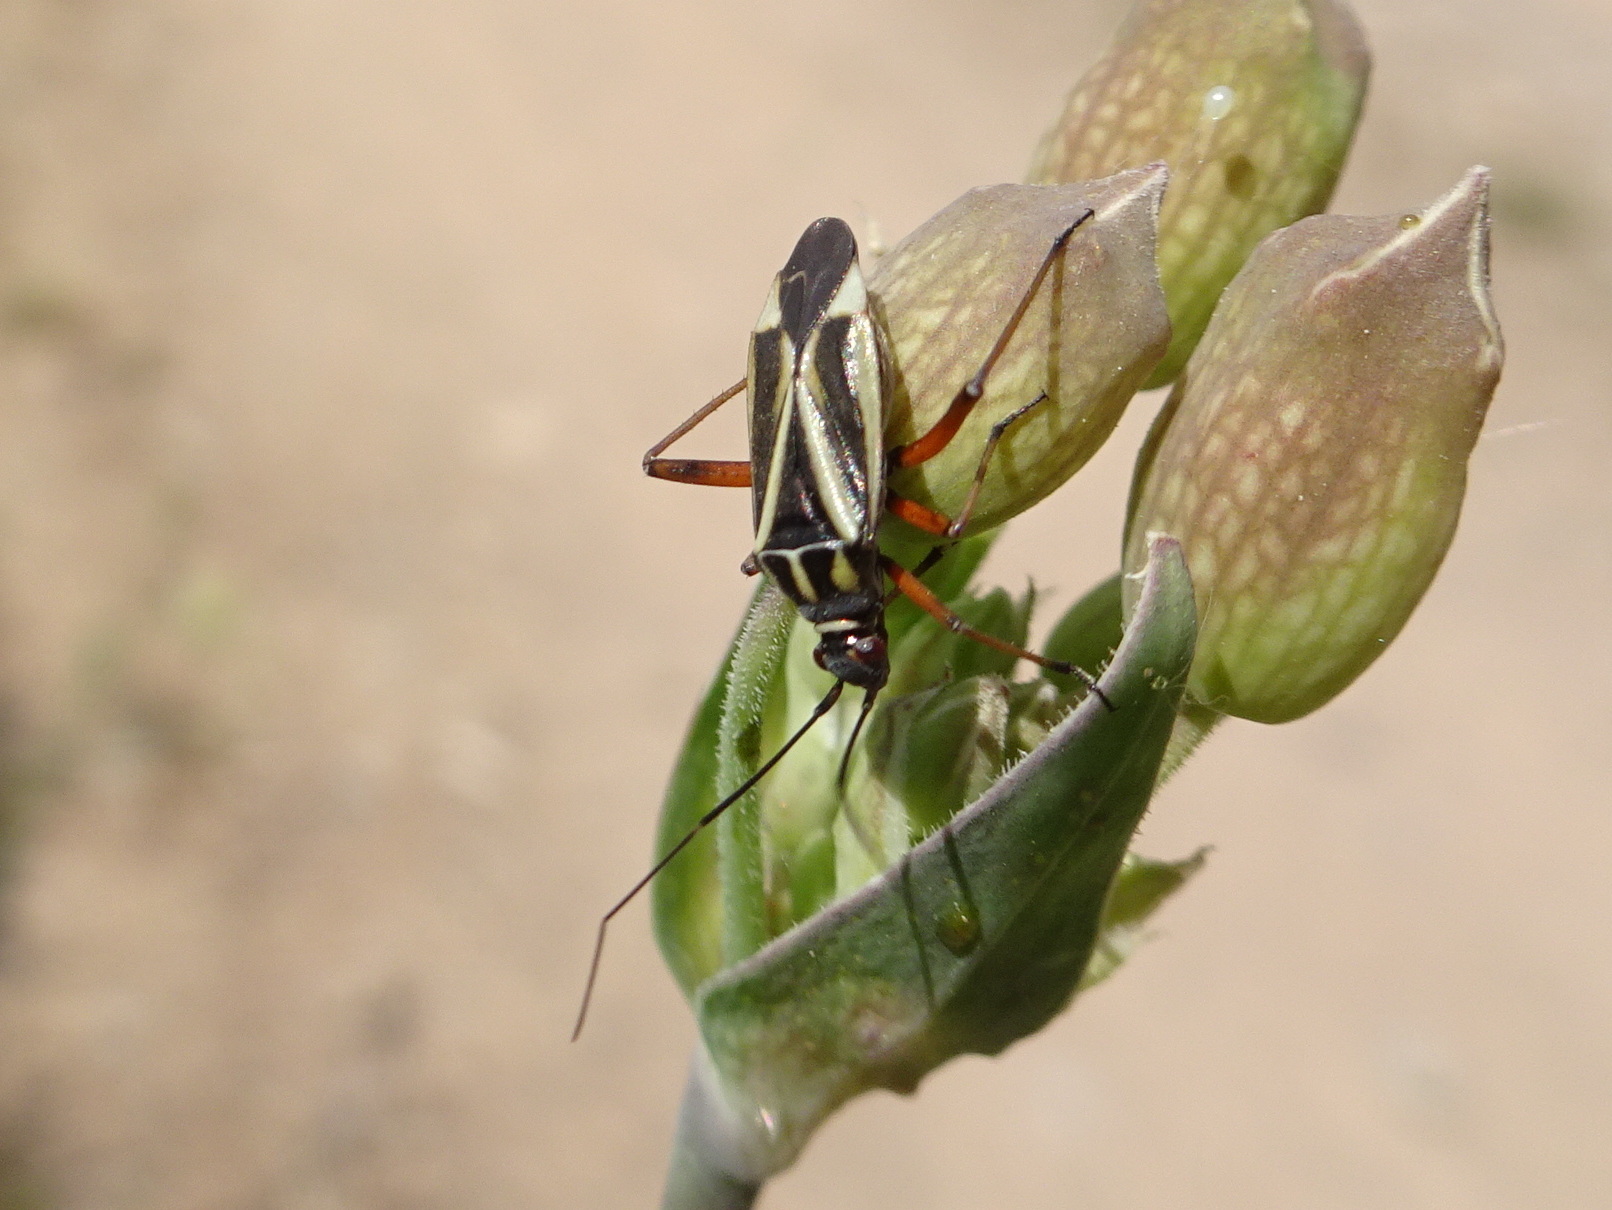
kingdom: Animalia
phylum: Arthropoda
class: Insecta
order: Hemiptera
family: Miridae
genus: Hadrodemus
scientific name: Hadrodemus m-flavum
